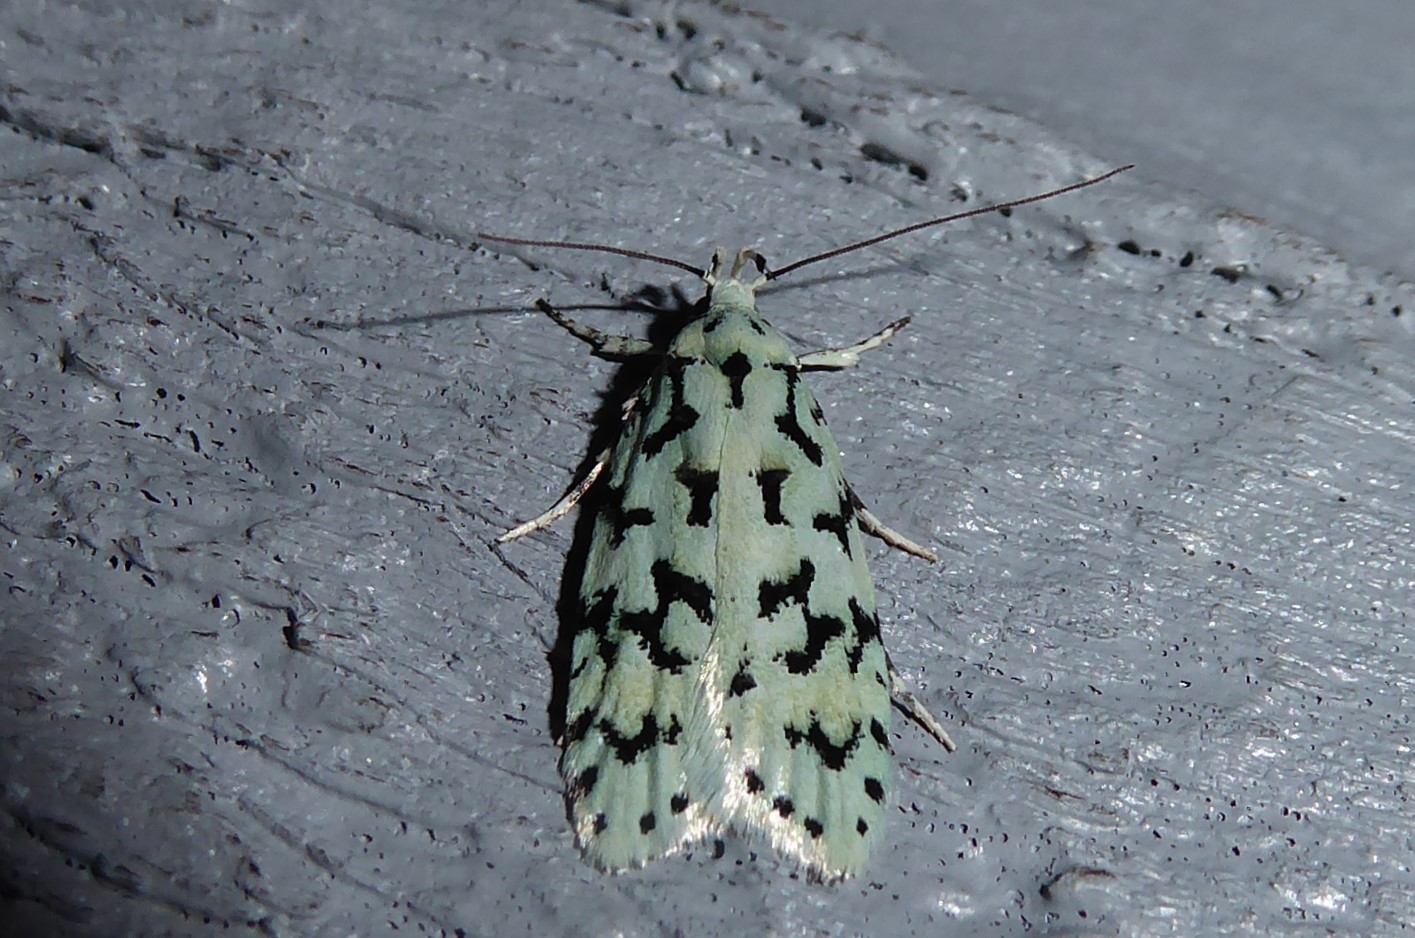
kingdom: Animalia
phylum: Arthropoda
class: Insecta
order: Lepidoptera
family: Oecophoridae
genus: Izatha
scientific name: Izatha huttoni
